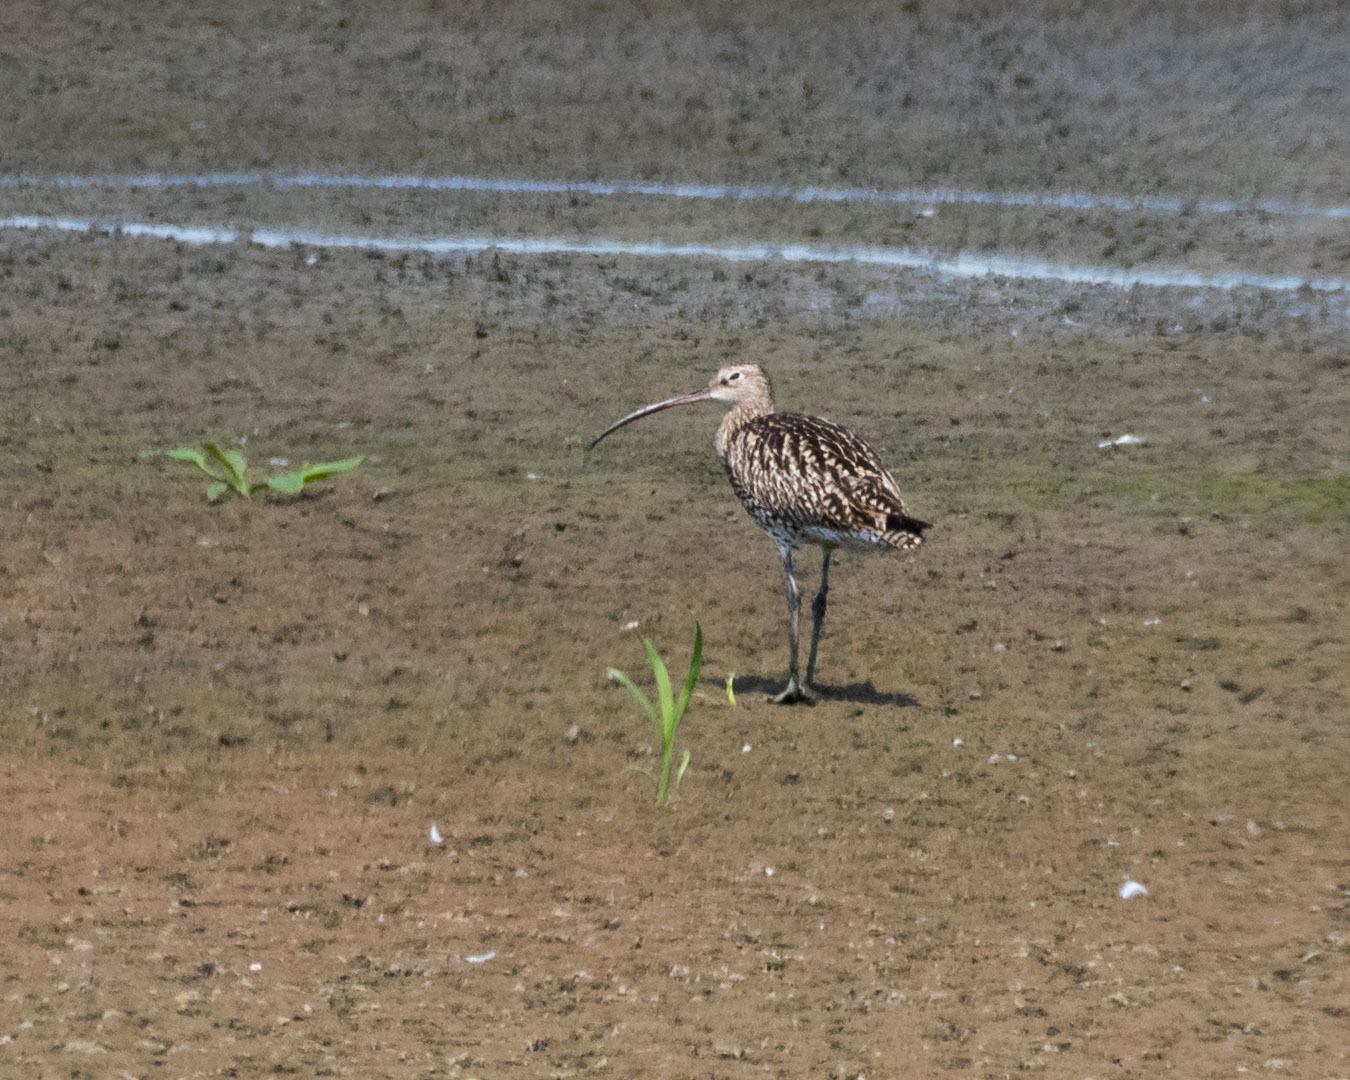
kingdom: Animalia
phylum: Chordata
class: Aves
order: Charadriiformes
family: Scolopacidae
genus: Numenius
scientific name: Numenius arquata
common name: Eurasian curlew
